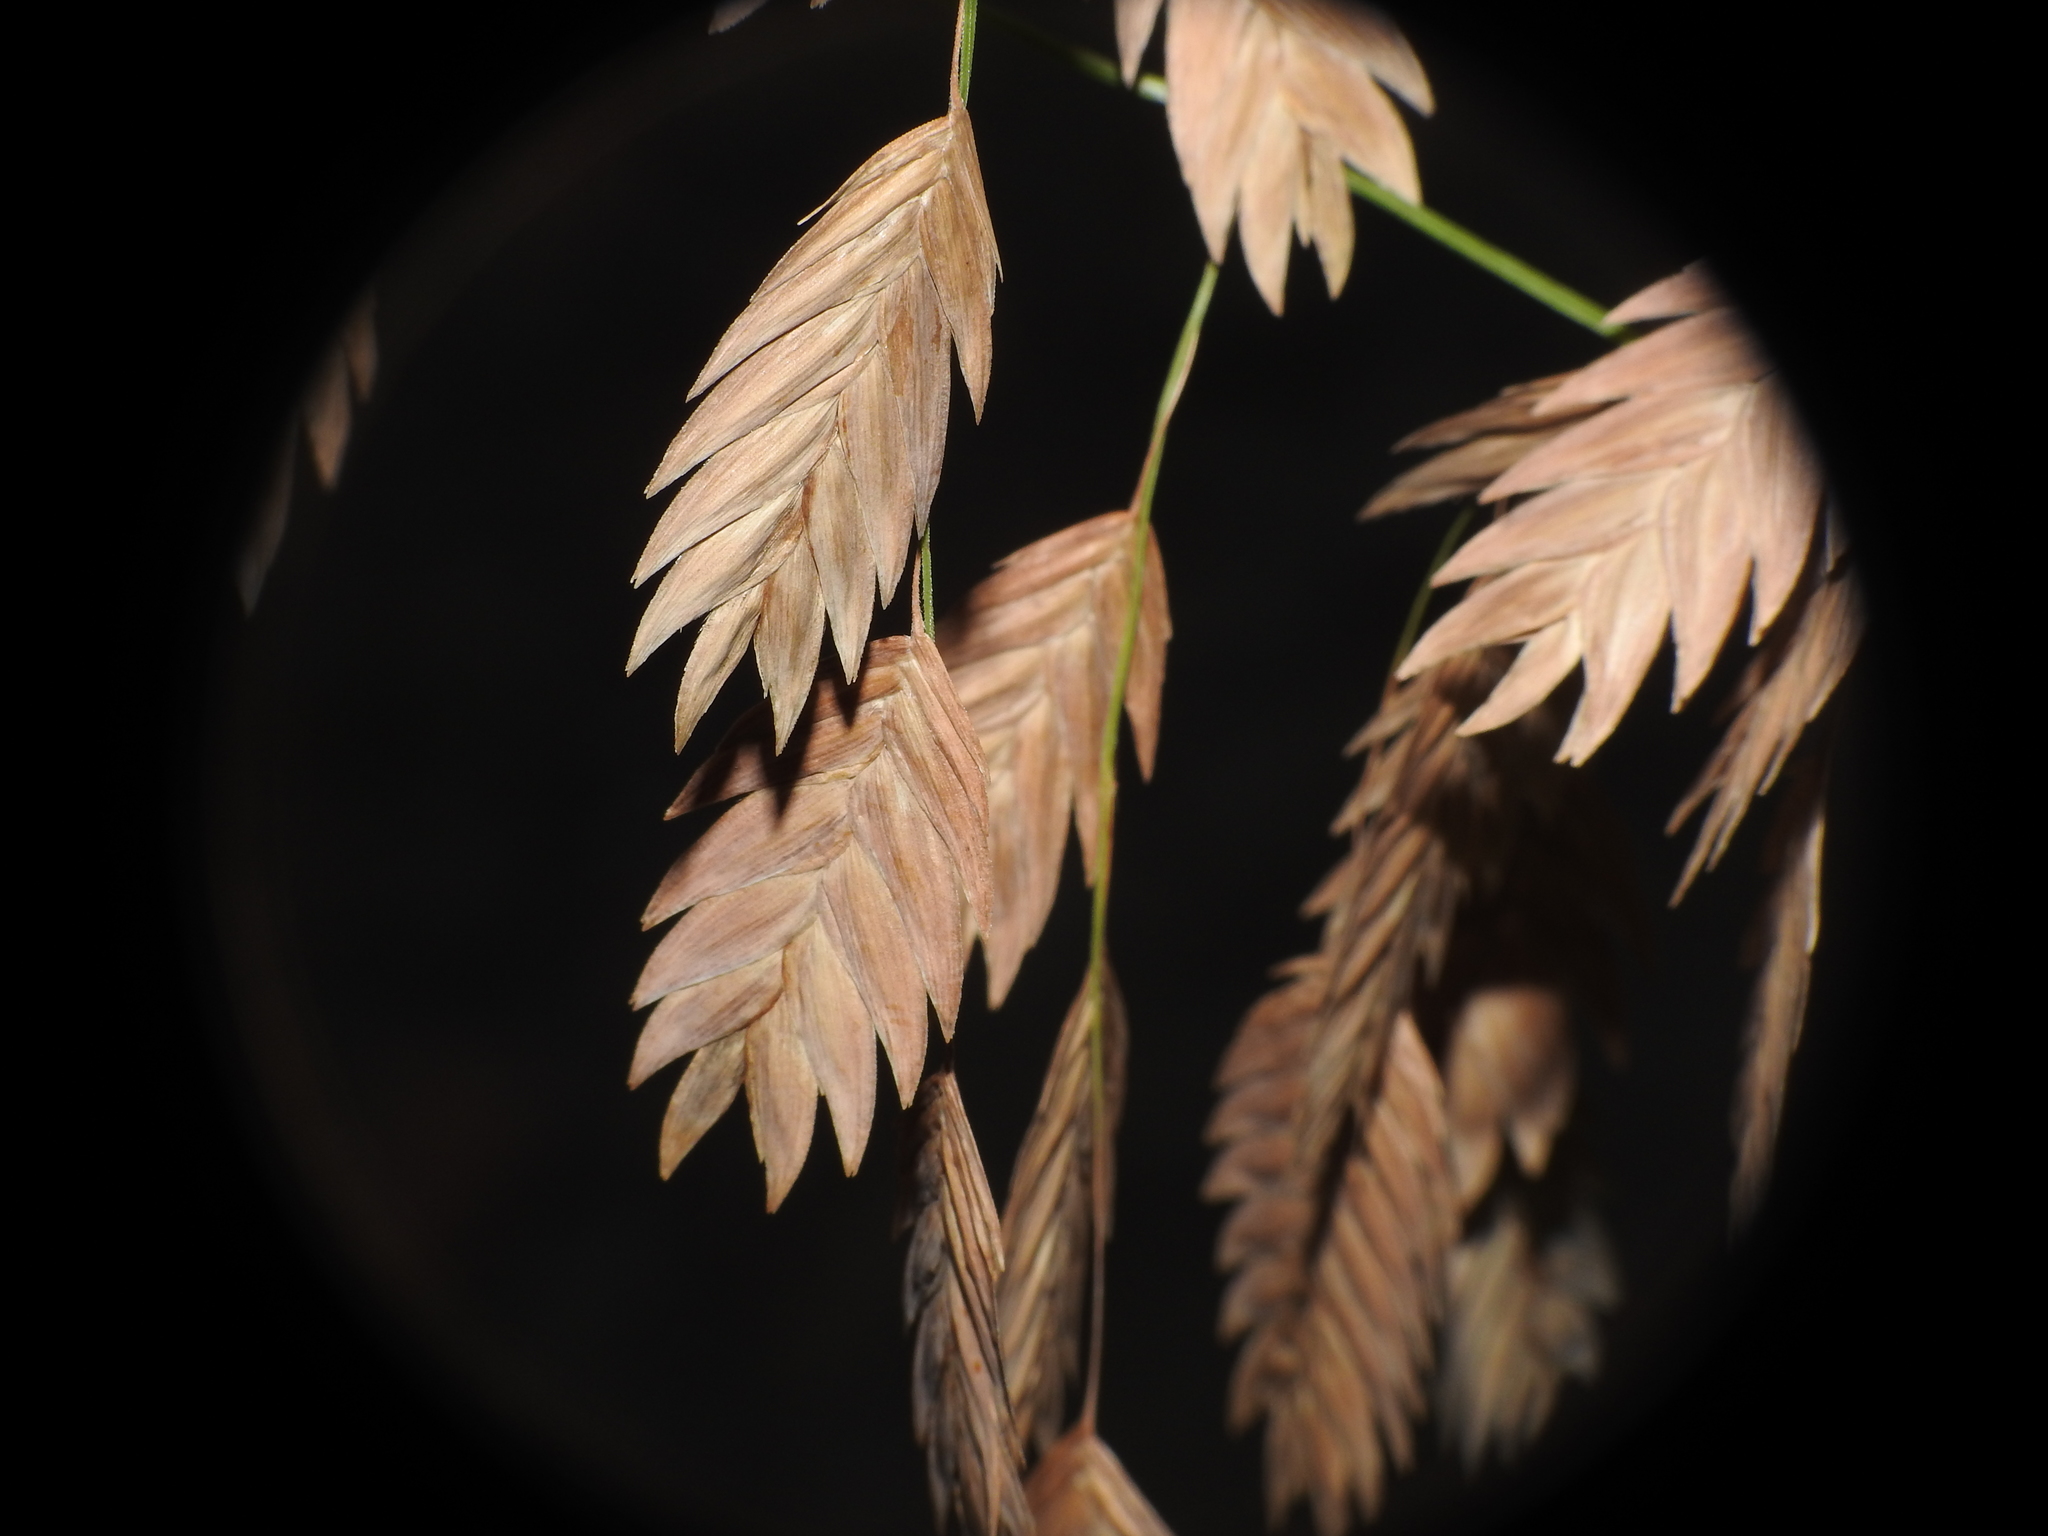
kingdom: Plantae
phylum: Tracheophyta
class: Liliopsida
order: Poales
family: Poaceae
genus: Chasmanthium
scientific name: Chasmanthium latifolium
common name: Broad-leaved chasmanthium
